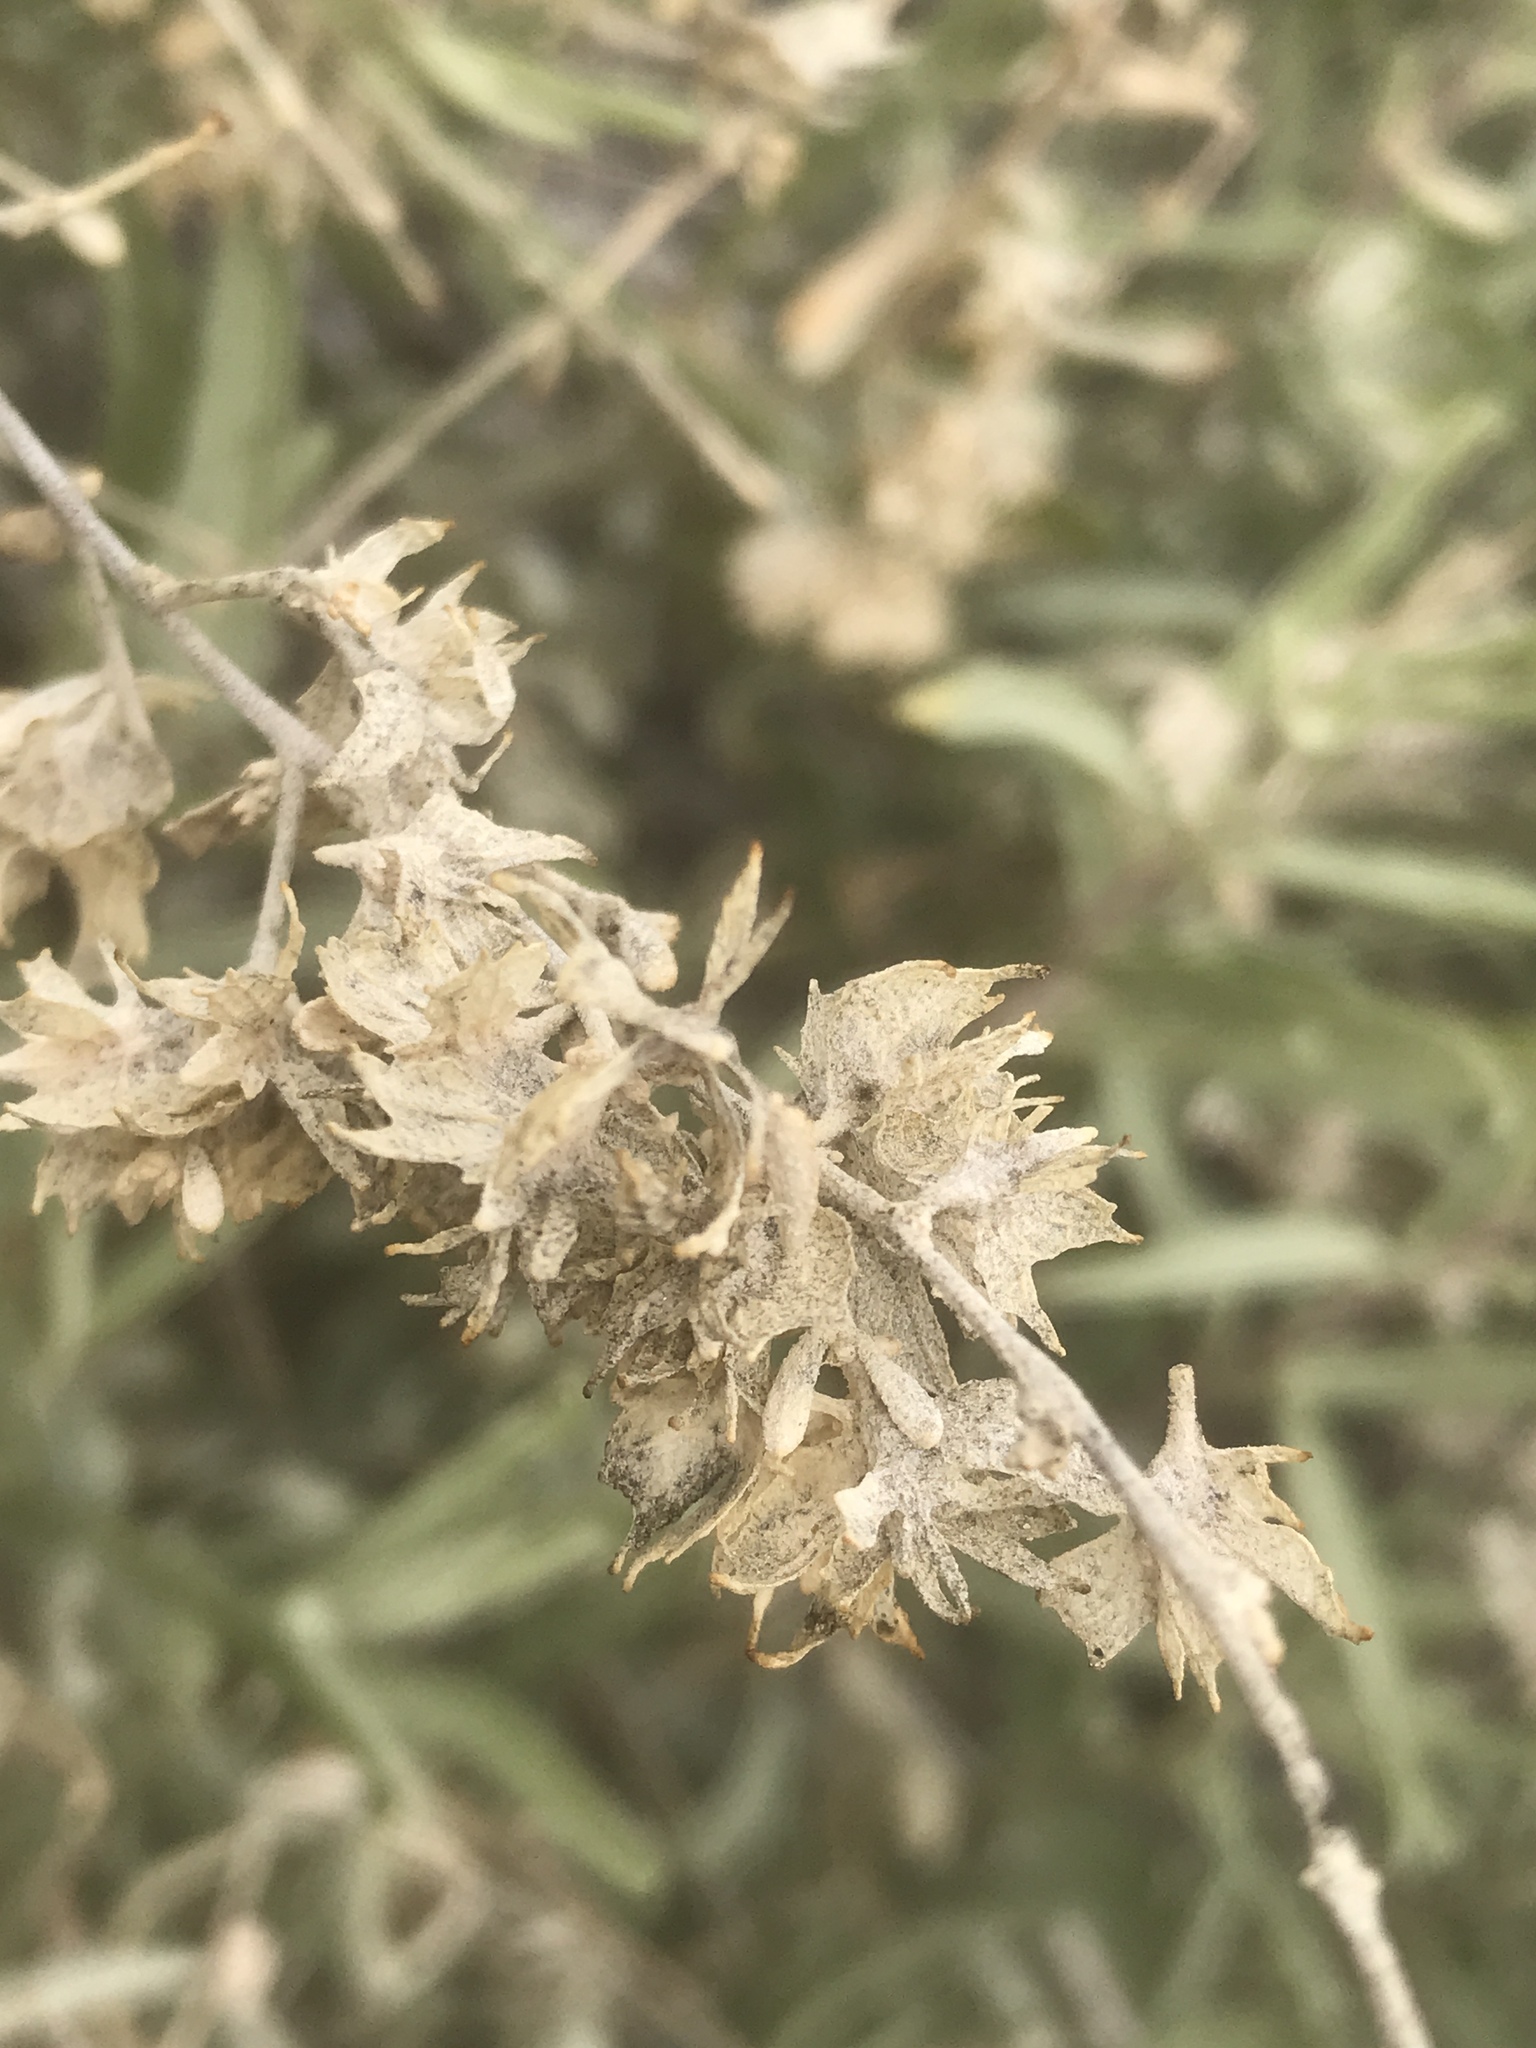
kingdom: Plantae
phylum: Tracheophyta
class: Magnoliopsida
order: Caryophyllales
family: Amaranthaceae
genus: Atriplex
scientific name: Atriplex canescens
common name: Four-wing saltbush
